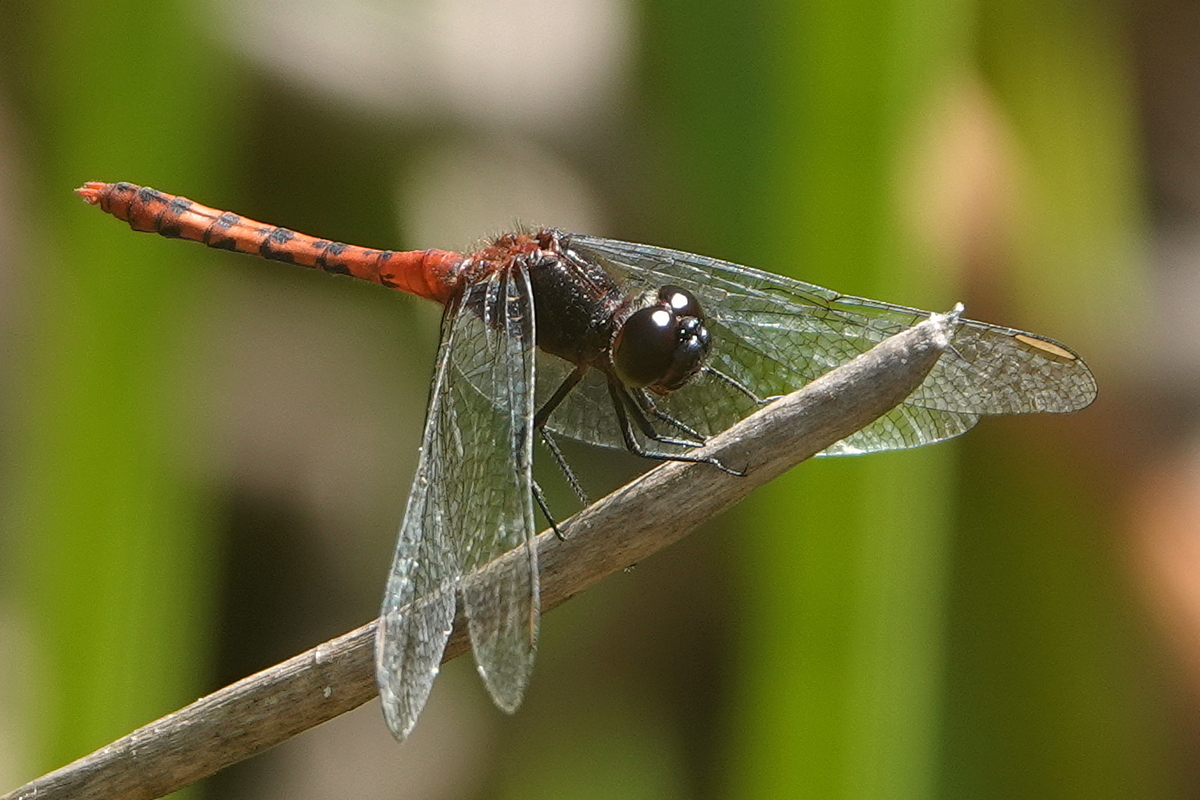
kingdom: Animalia
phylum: Arthropoda
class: Insecta
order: Odonata
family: Libellulidae
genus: Diplacodes
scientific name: Diplacodes melanopsis
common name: Black-faced percher
